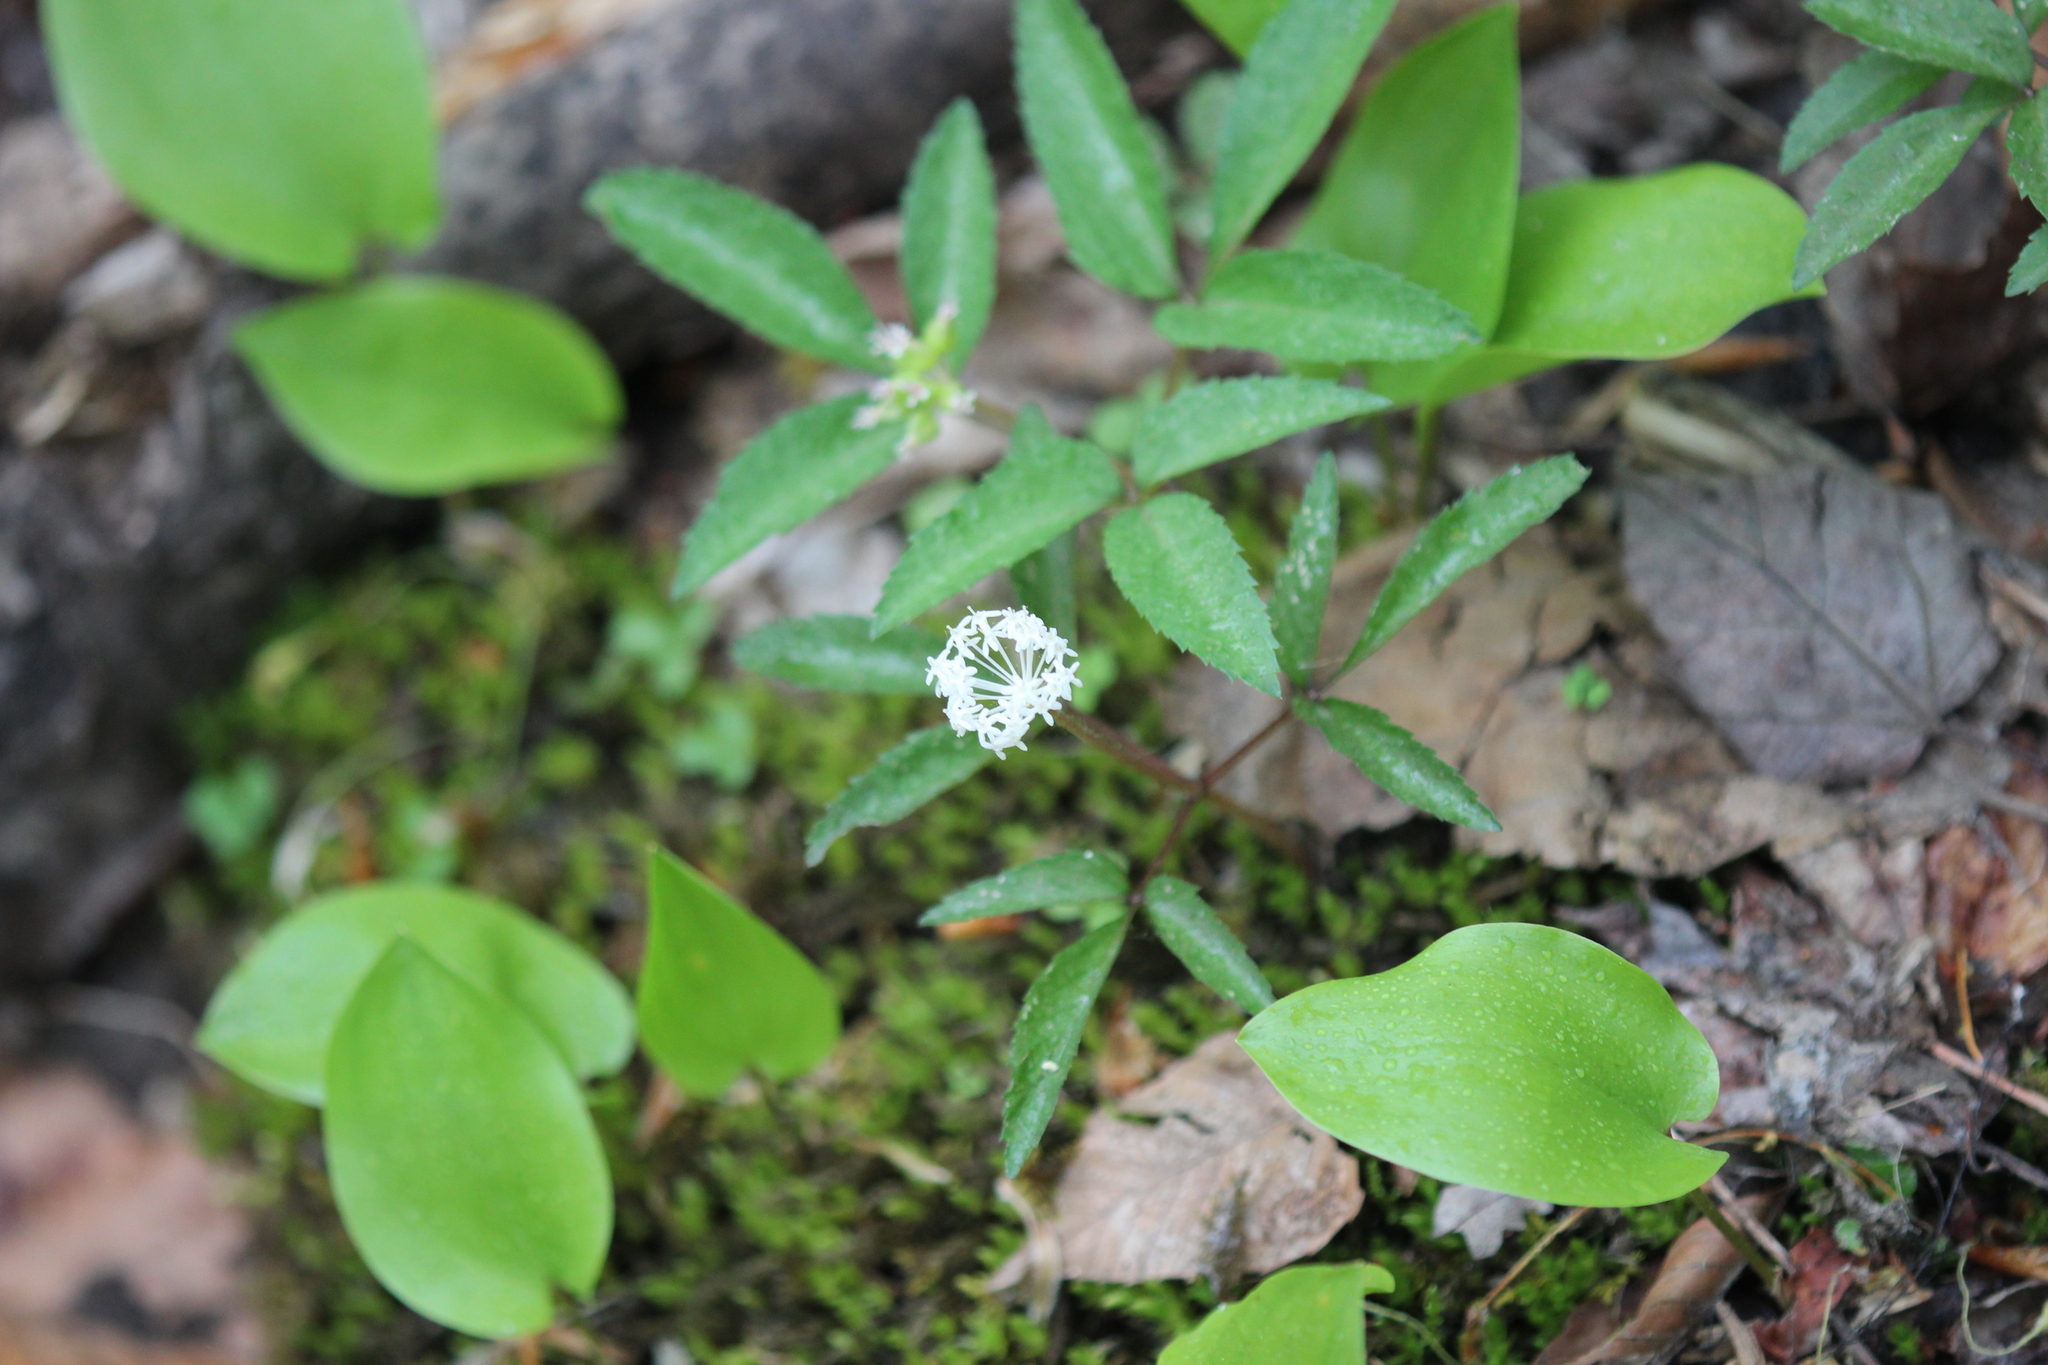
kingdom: Plantae
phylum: Tracheophyta
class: Magnoliopsida
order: Apiales
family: Araliaceae
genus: Panax
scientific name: Panax trifolius
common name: Dwarf ginseng
